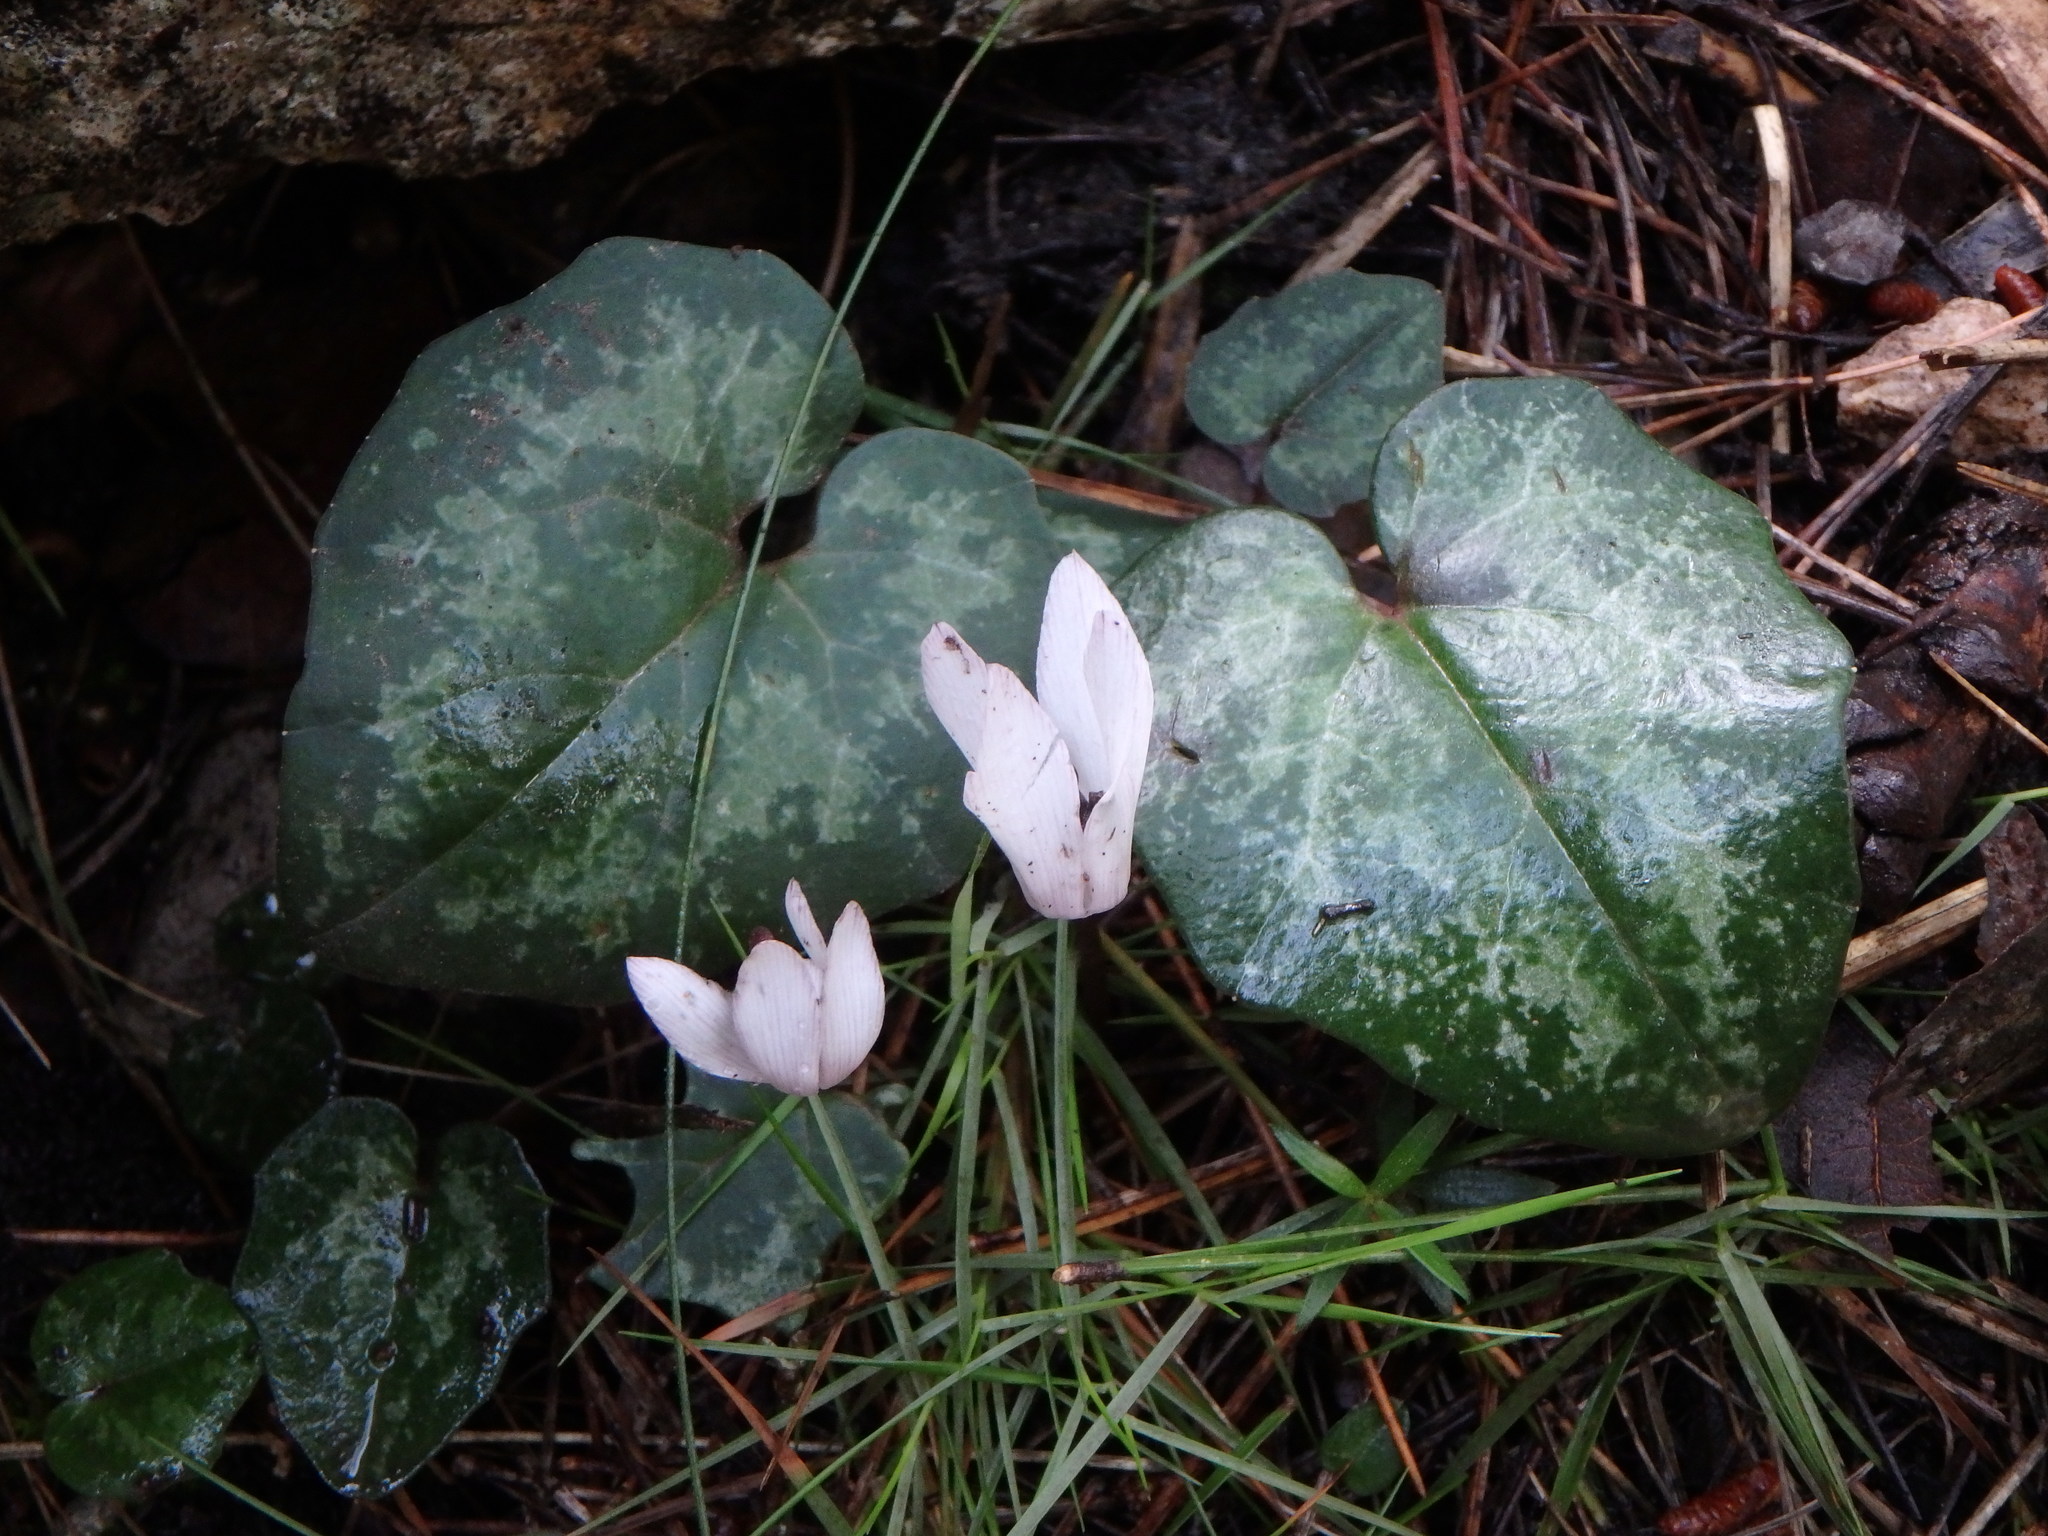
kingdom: Plantae
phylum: Tracheophyta
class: Magnoliopsida
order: Ericales
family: Primulaceae
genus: Cyclamen
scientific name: Cyclamen balearicum
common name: Majorca cyclamen
